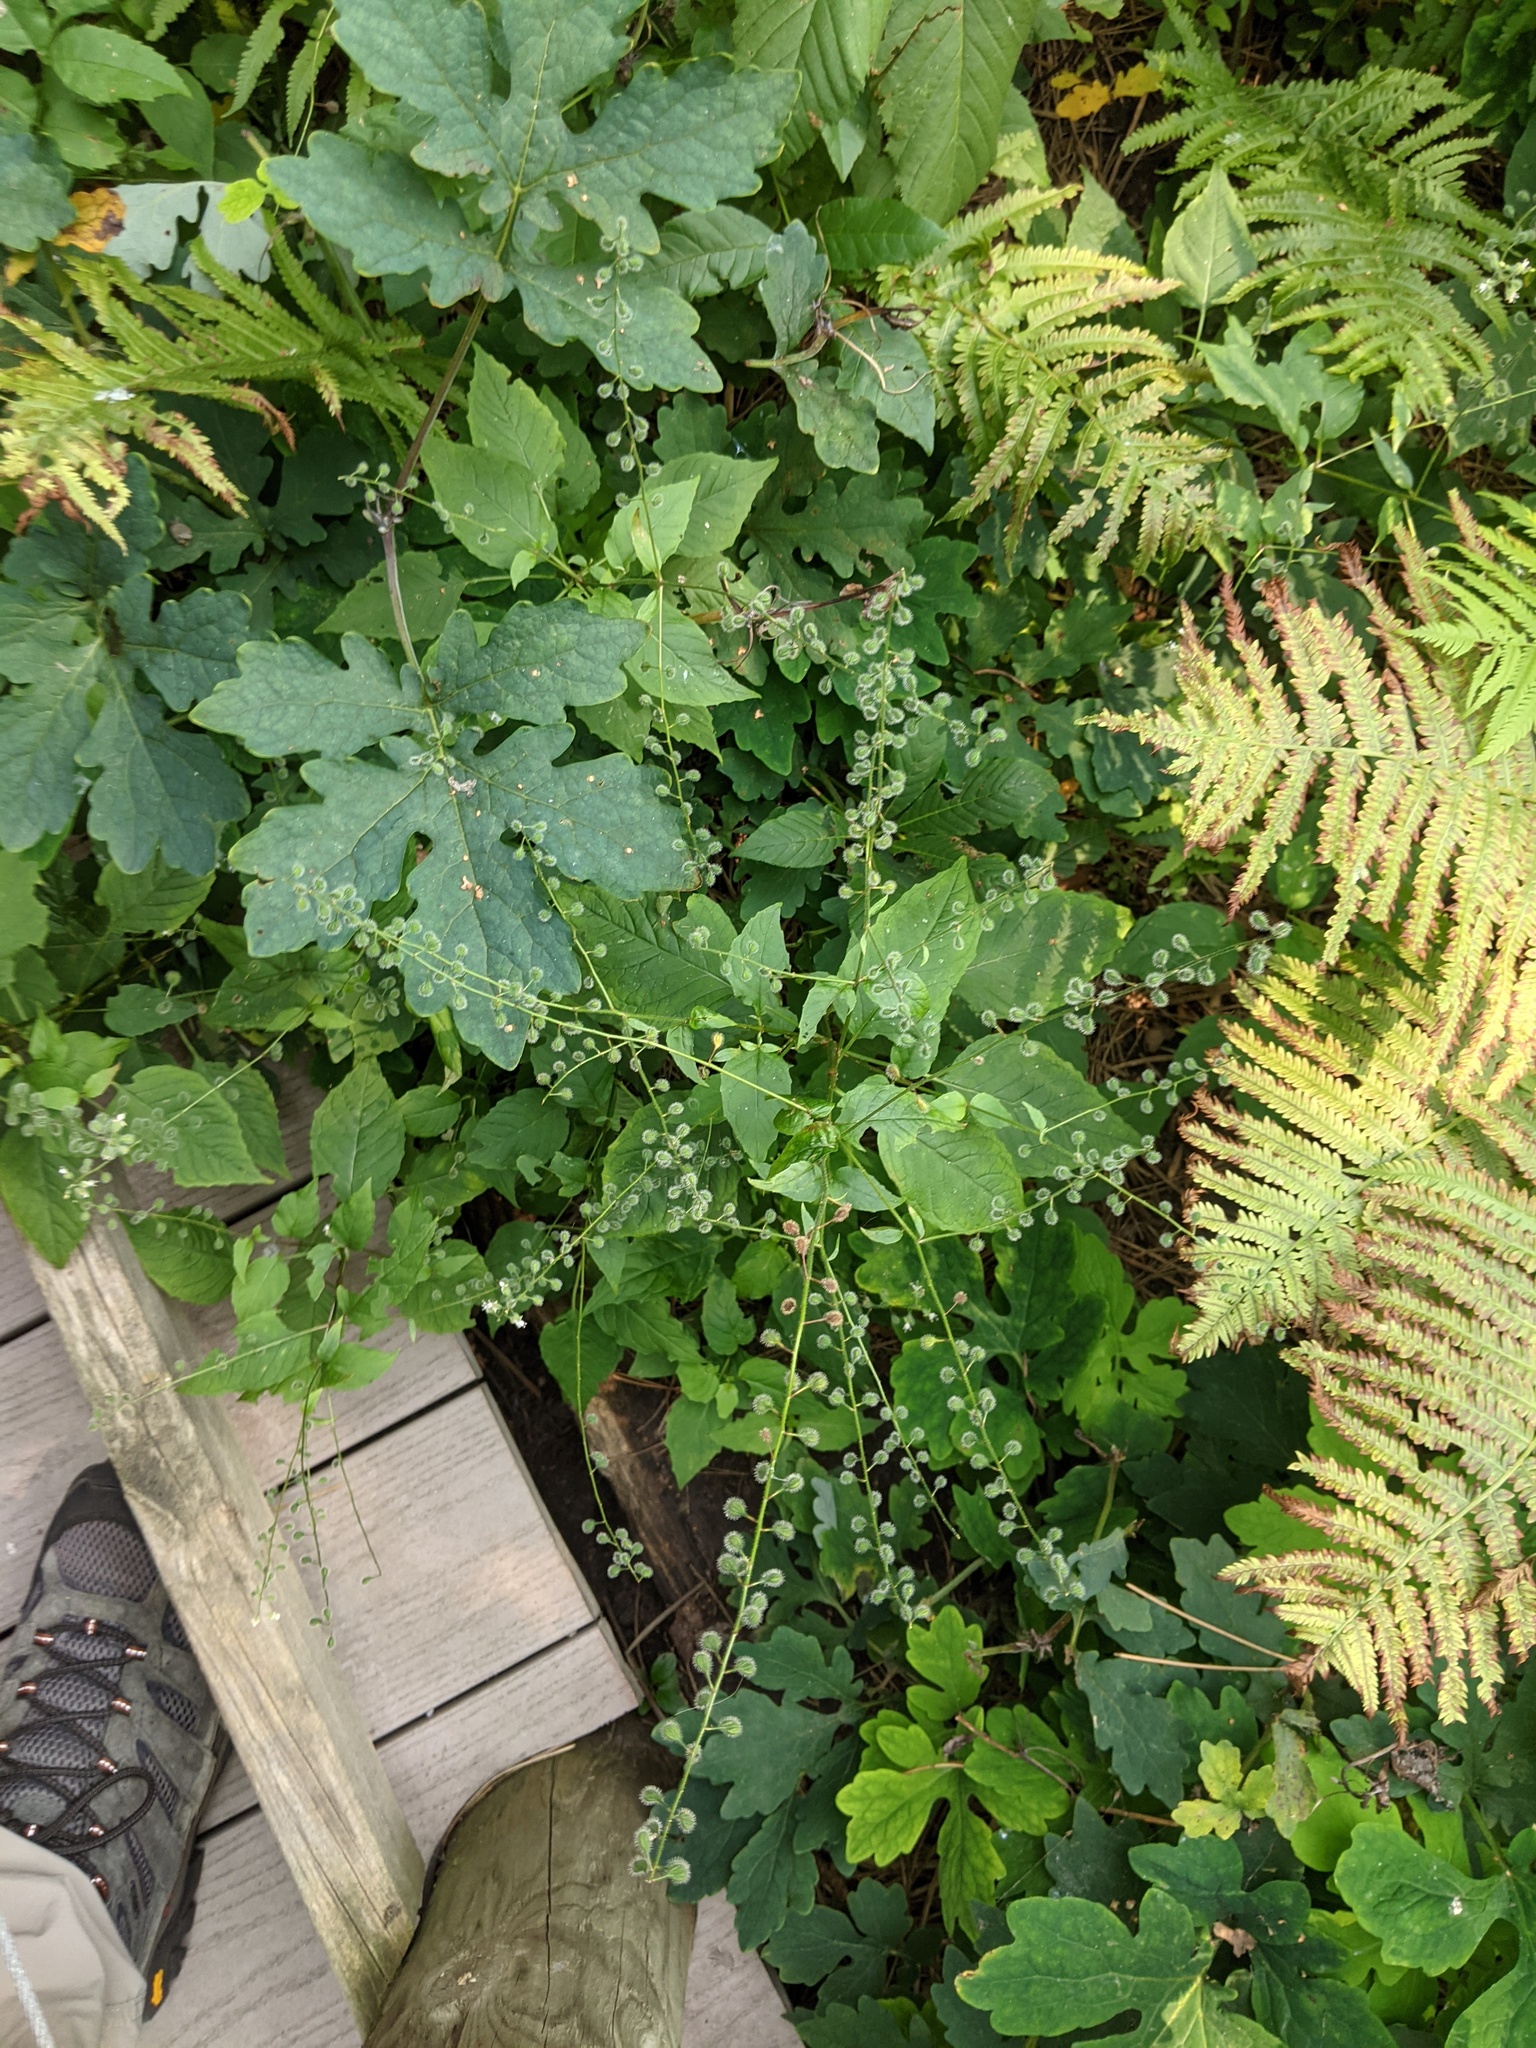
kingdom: Plantae
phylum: Tracheophyta
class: Magnoliopsida
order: Myrtales
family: Onagraceae
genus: Circaea
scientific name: Circaea canadensis
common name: Broad-leaved enchanter's nightshade
